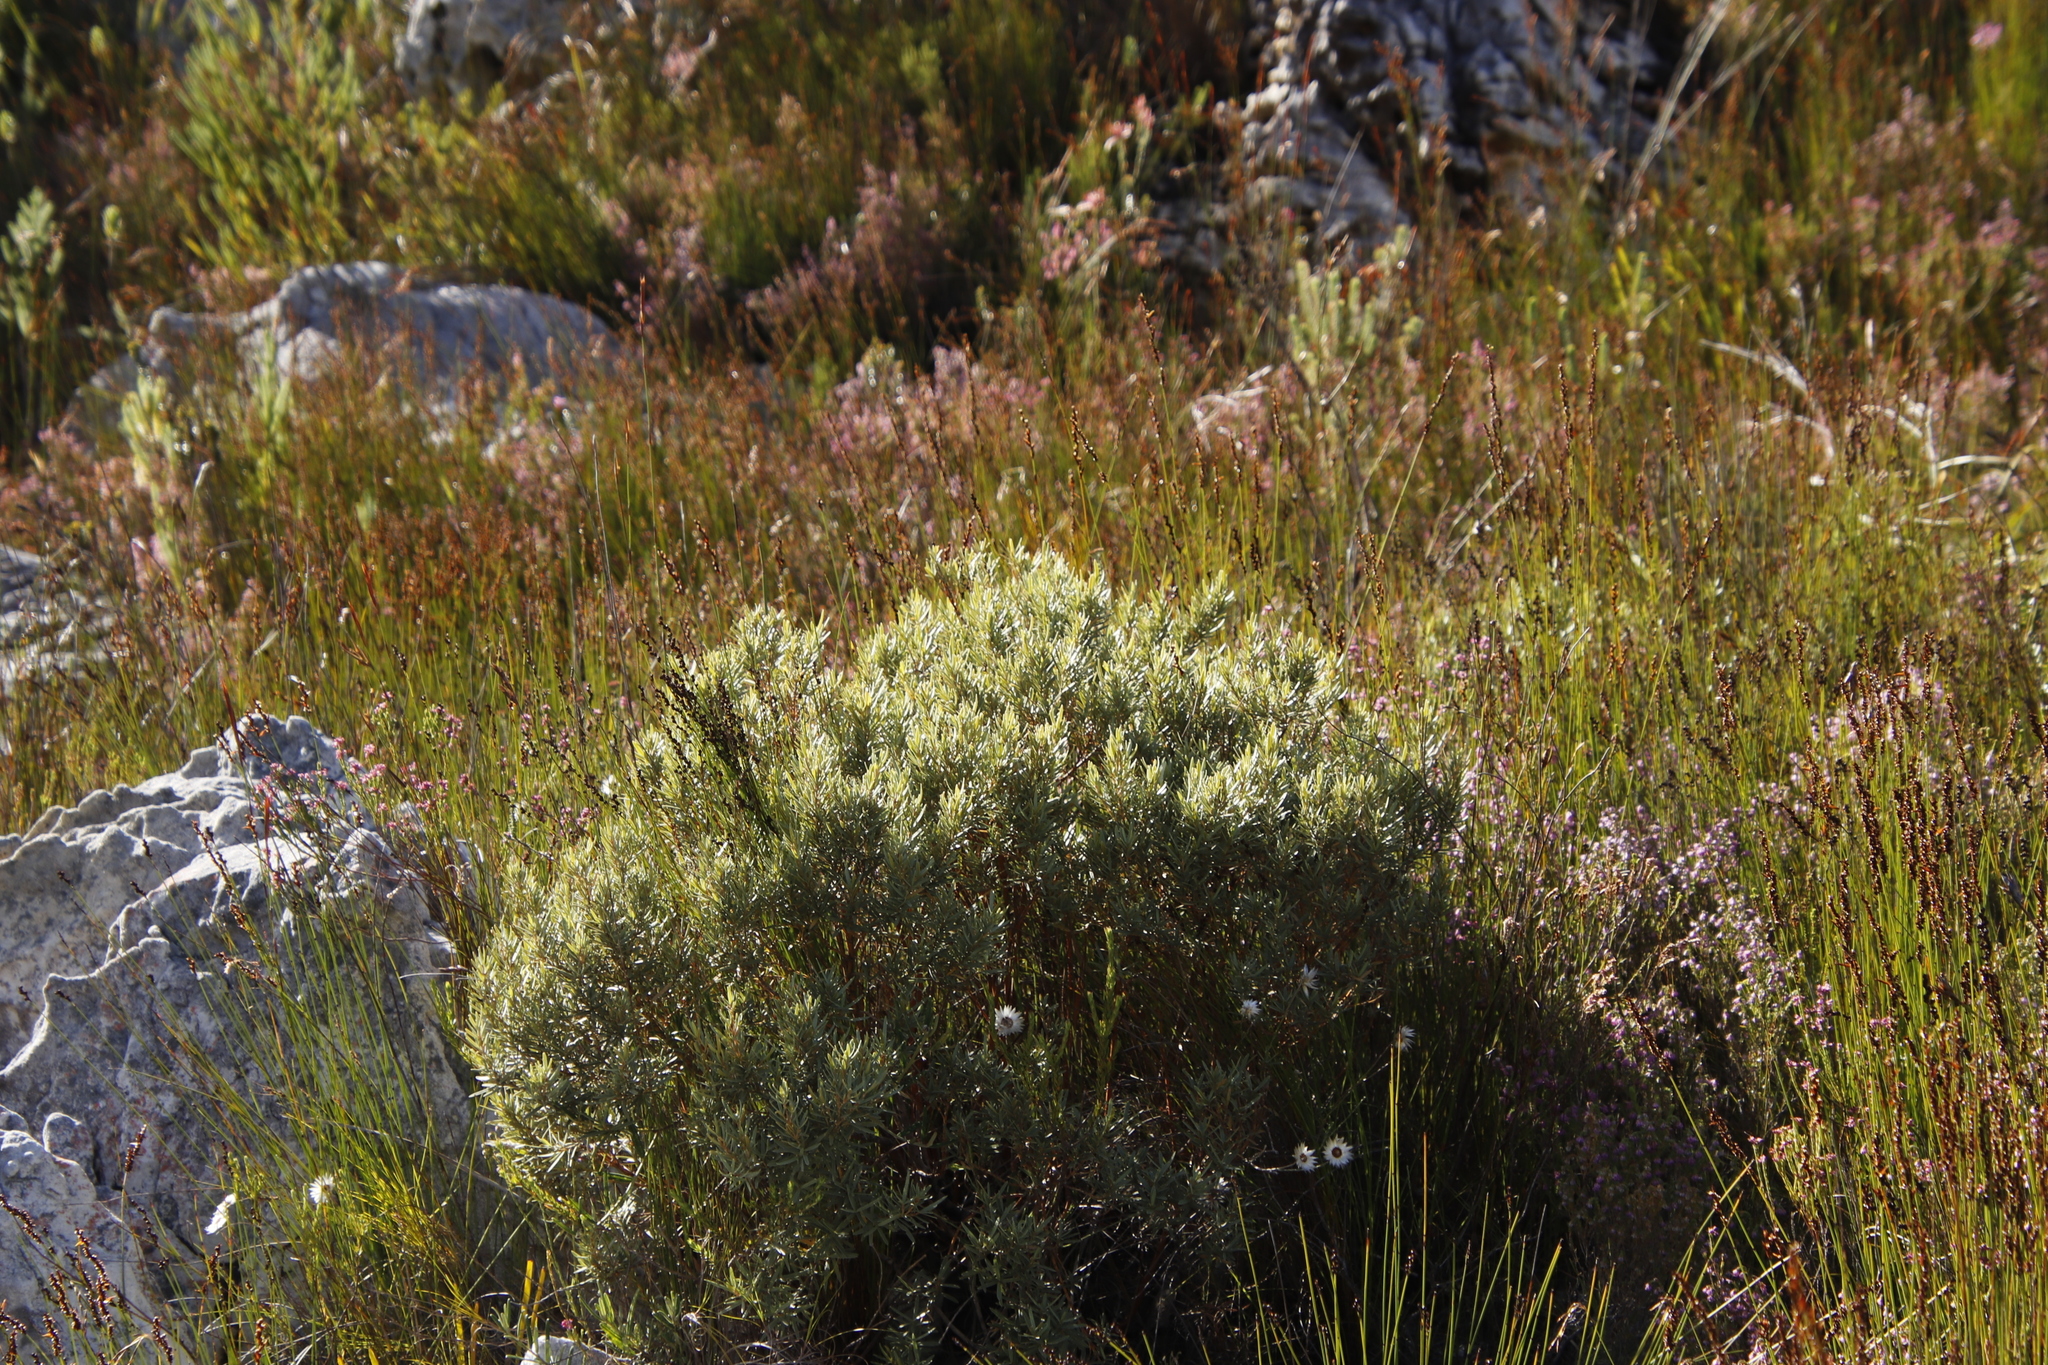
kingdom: Plantae
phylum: Tracheophyta
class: Magnoliopsida
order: Cornales
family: Grubbiaceae
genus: Grubbia
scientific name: Grubbia tomentosa
